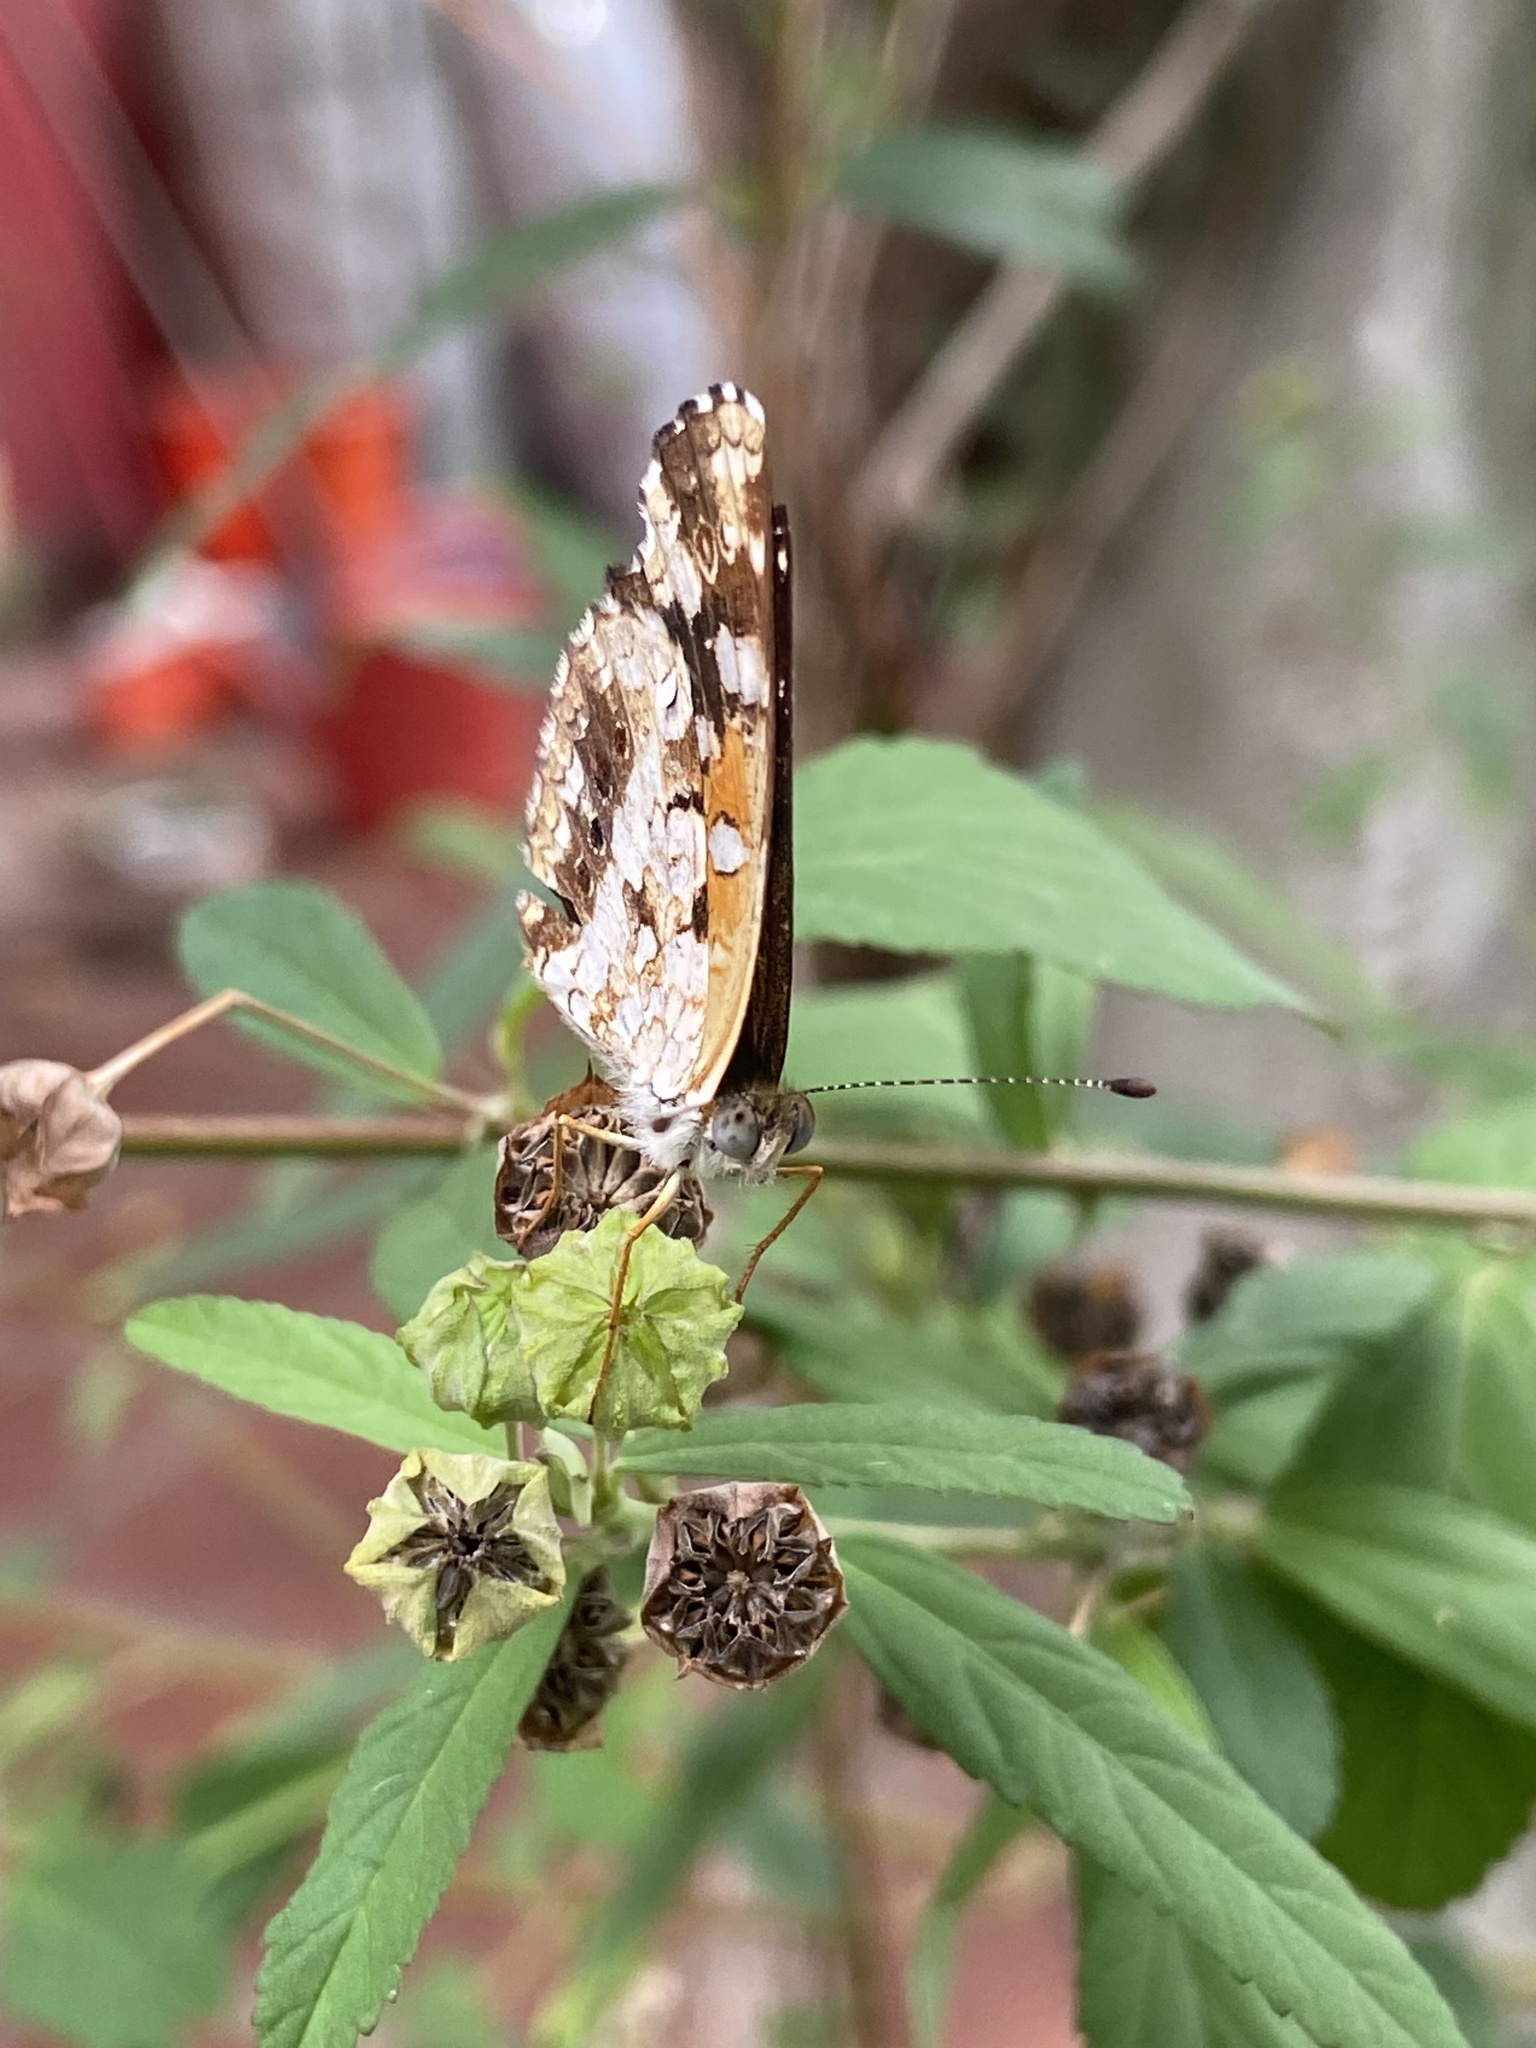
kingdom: Animalia
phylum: Arthropoda
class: Insecta
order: Lepidoptera
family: Nymphalidae
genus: Ortilia
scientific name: Ortilia ithra
